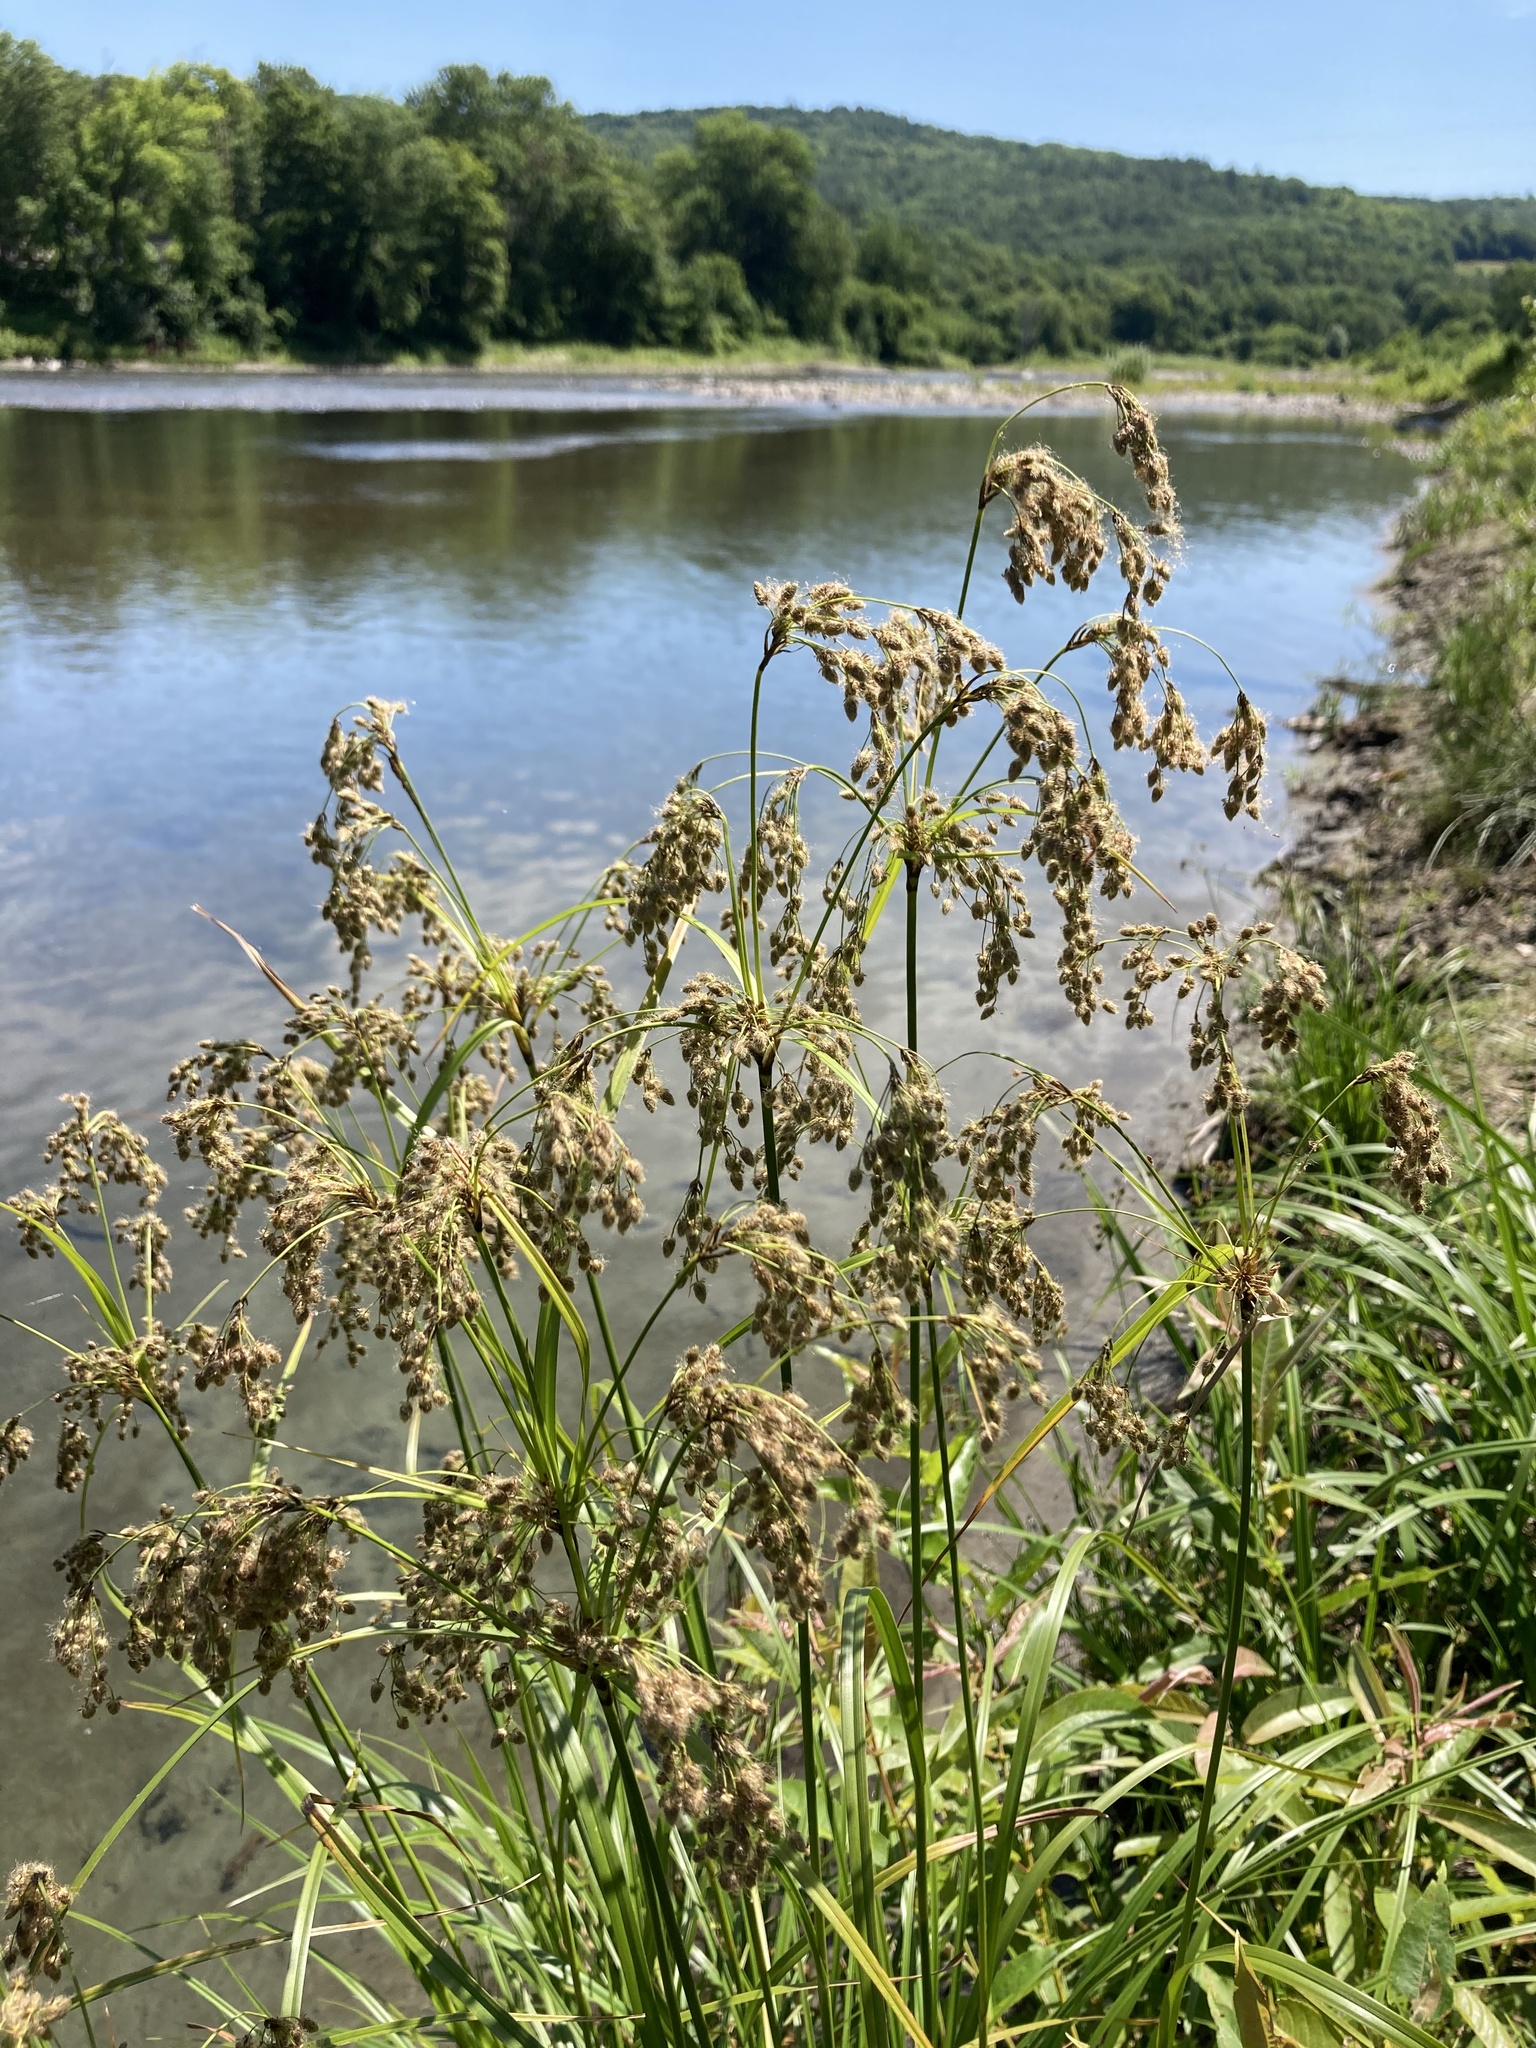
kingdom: Plantae
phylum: Tracheophyta
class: Liliopsida
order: Poales
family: Cyperaceae
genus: Scirpus
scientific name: Scirpus cyperinus
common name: Black-sheathed bulrush
